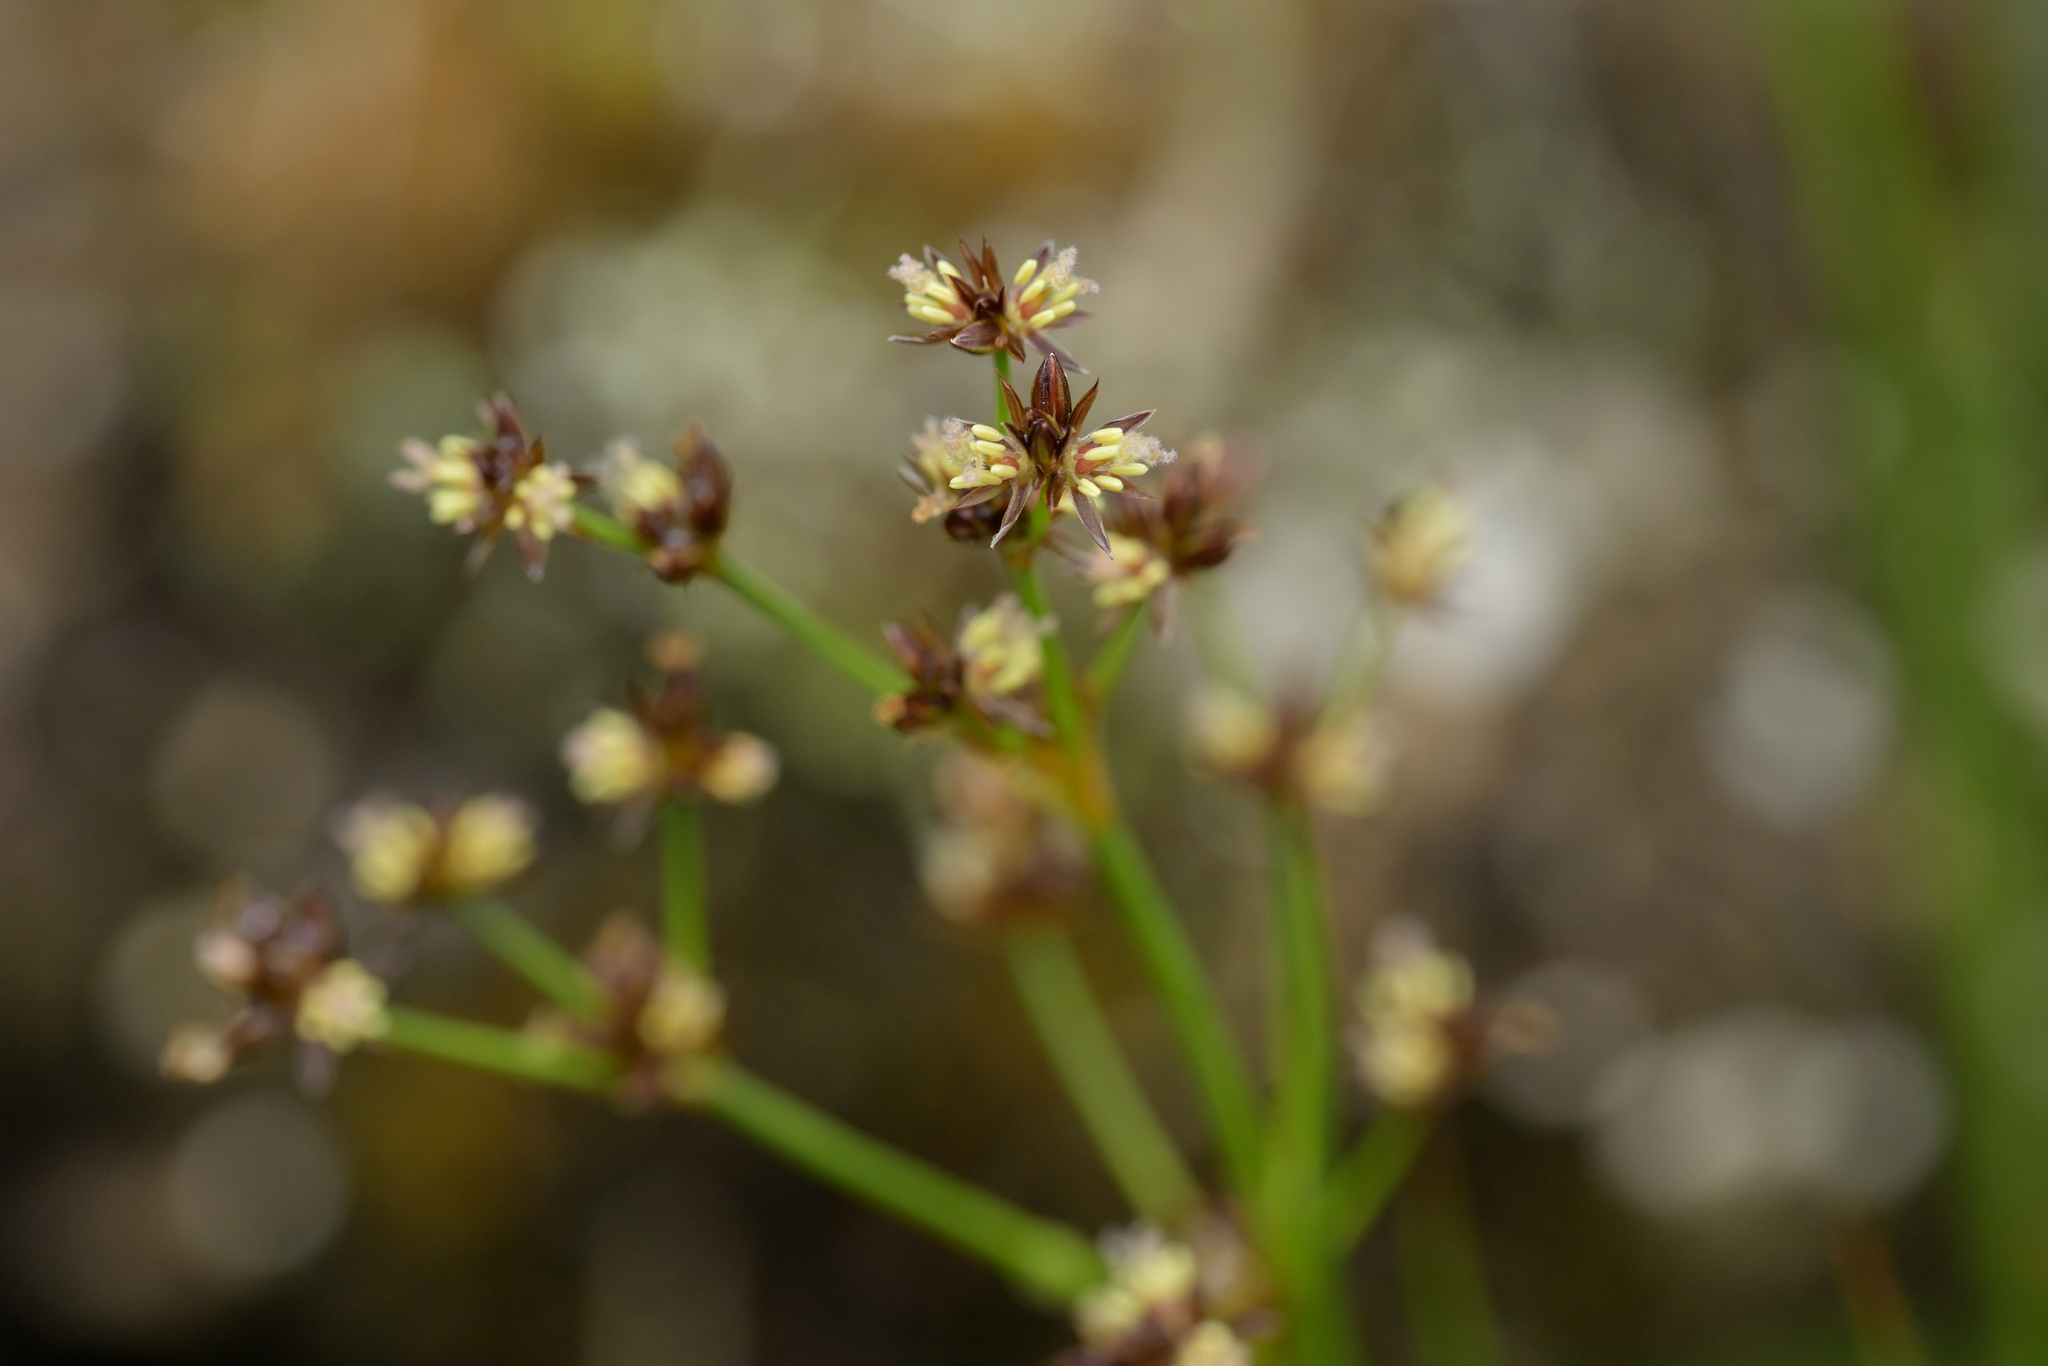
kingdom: Plantae
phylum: Tracheophyta
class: Liliopsida
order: Poales
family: Juncaceae
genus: Juncus
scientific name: Juncus articulatus
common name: Jointed rush
